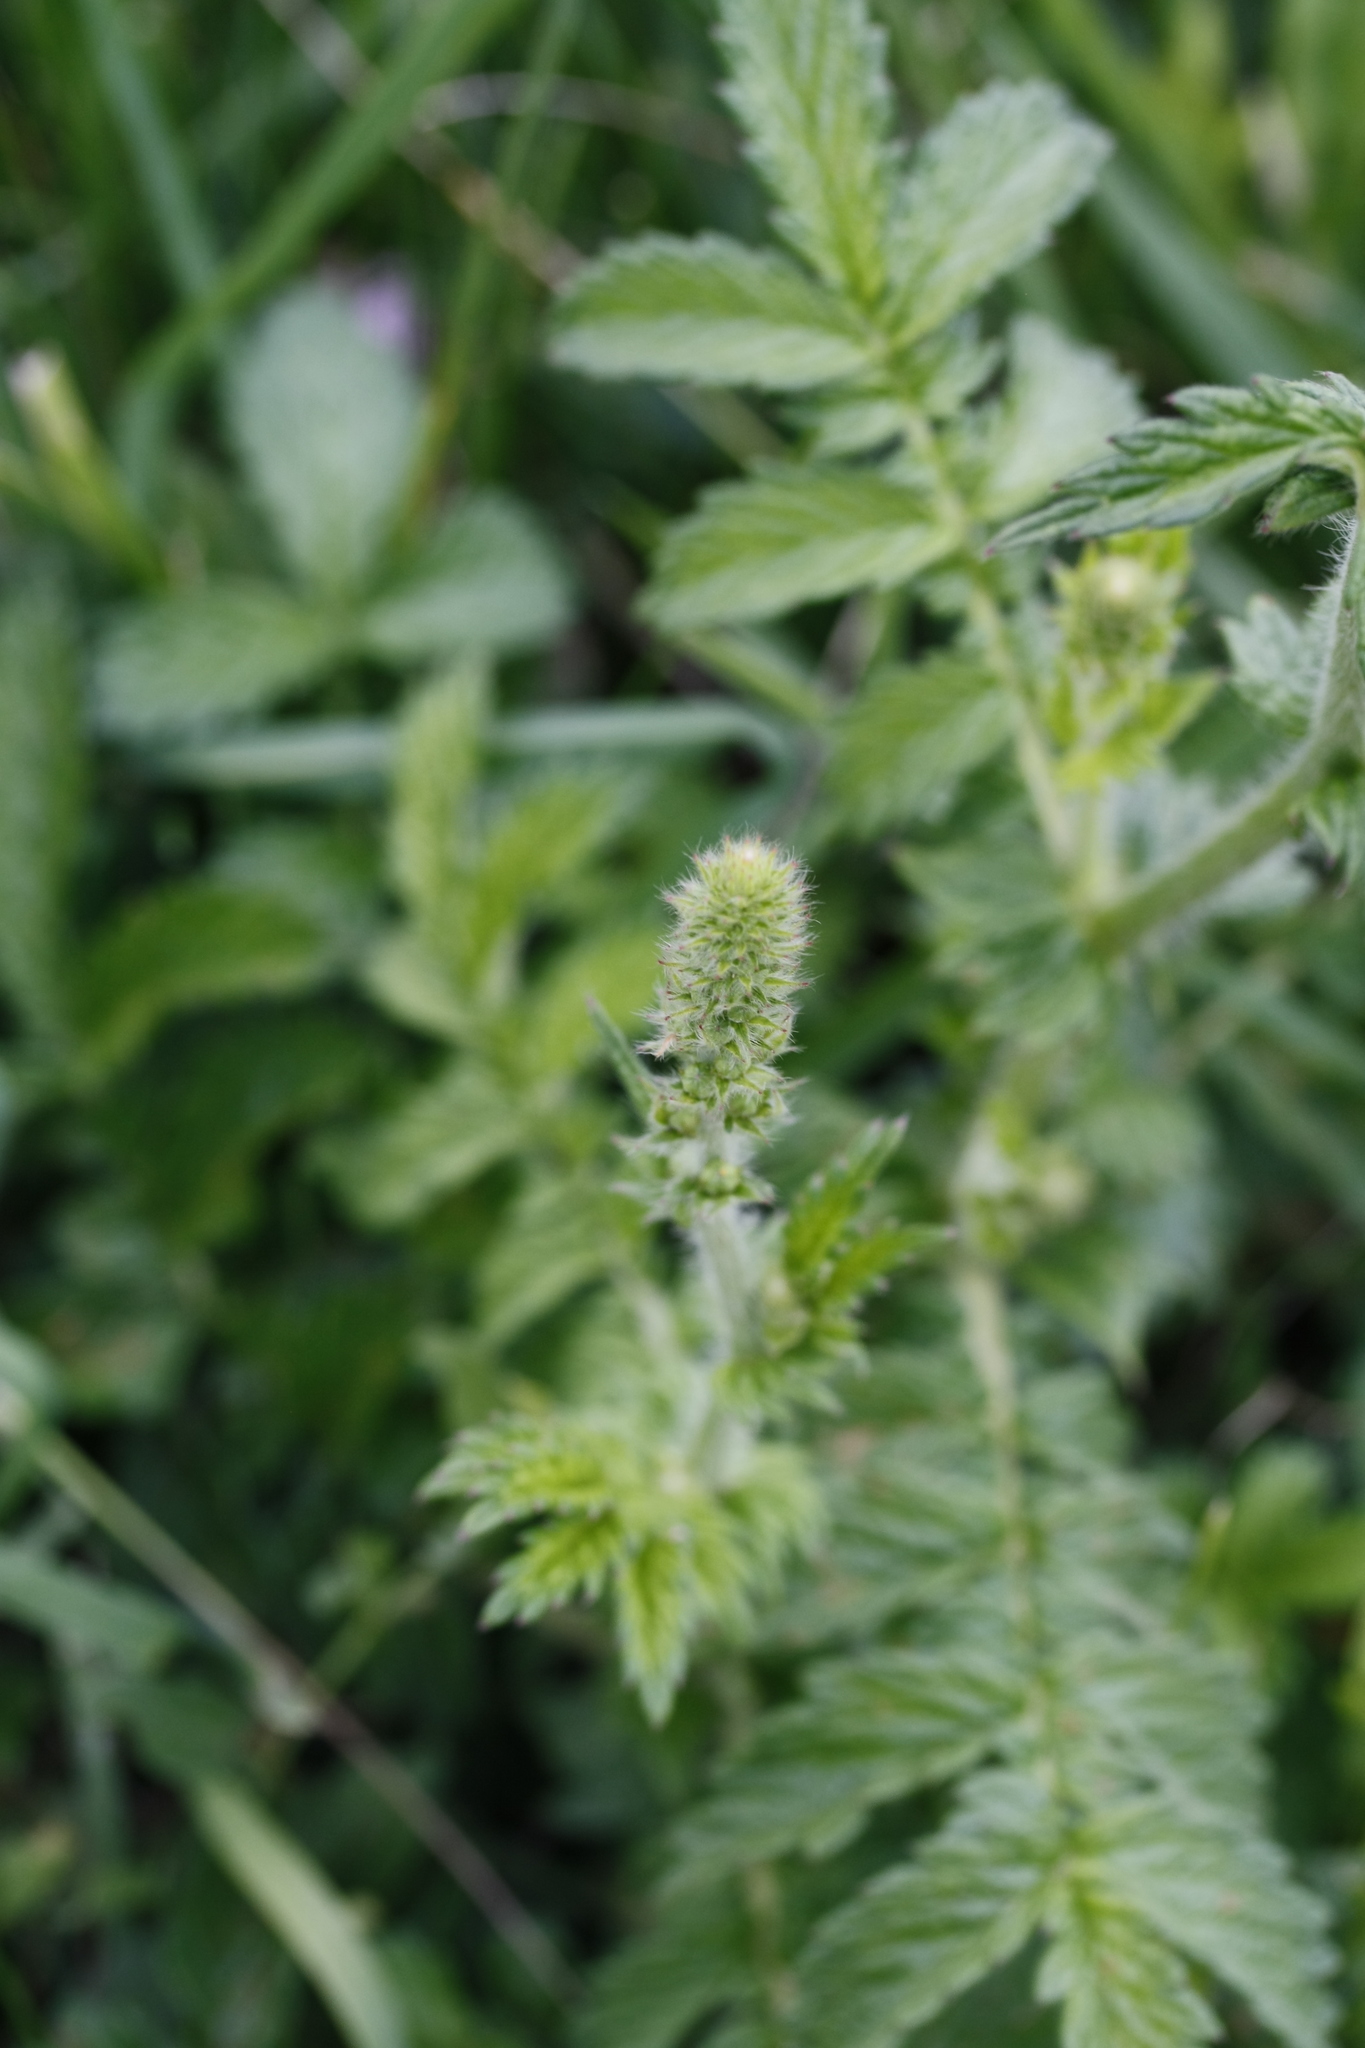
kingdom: Plantae
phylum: Tracheophyta
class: Magnoliopsida
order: Rosales
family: Rosaceae
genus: Agrimonia
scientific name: Agrimonia eupatoria
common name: Agrimony
